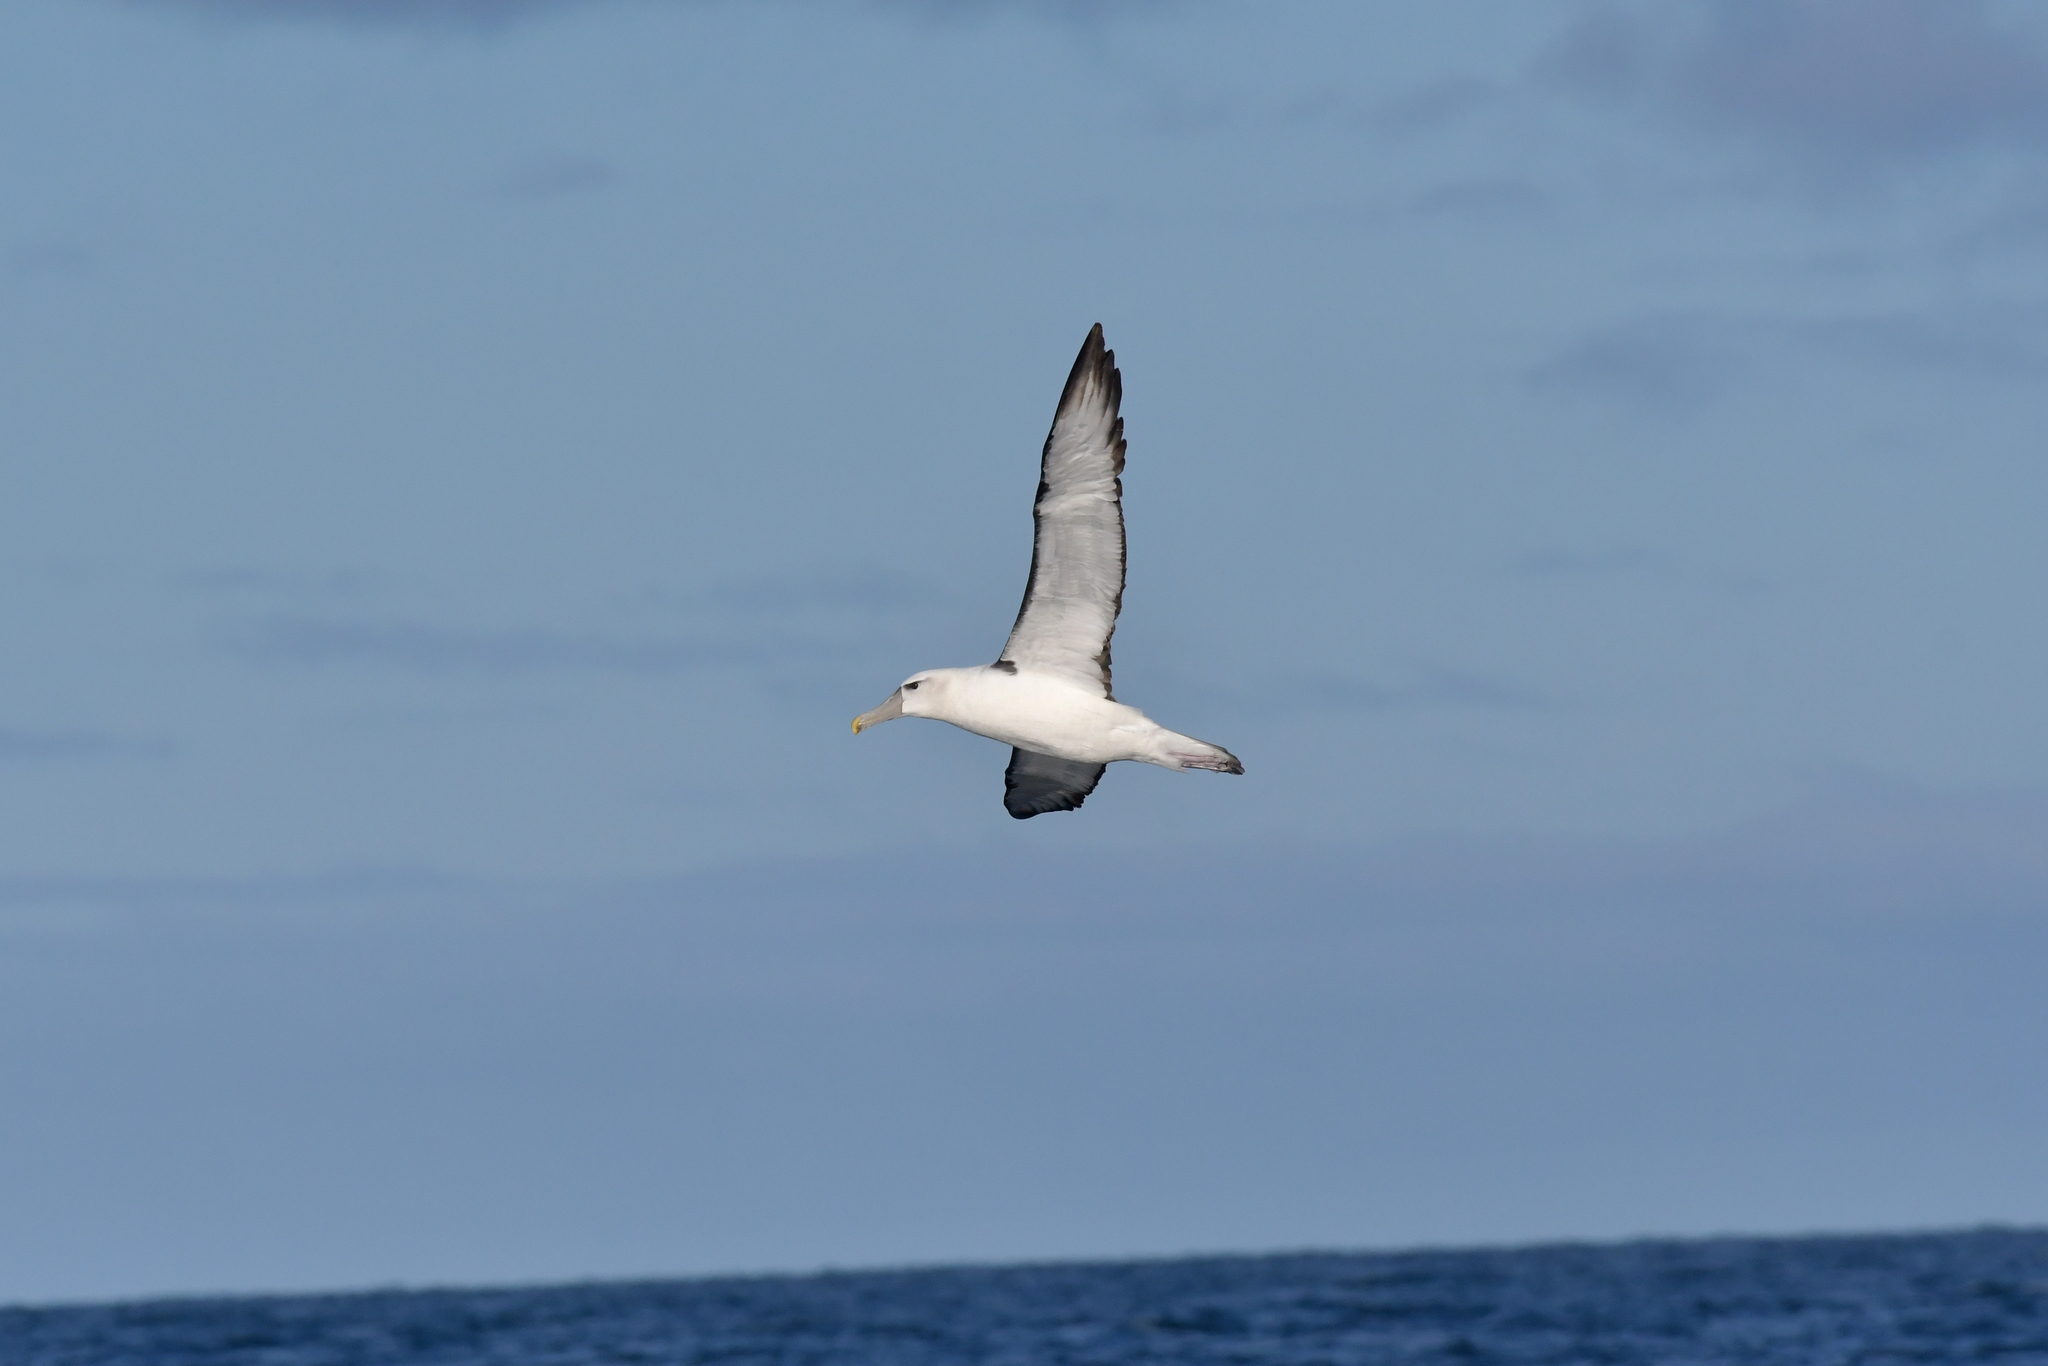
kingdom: Animalia
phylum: Chordata
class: Aves
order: Procellariiformes
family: Diomedeidae
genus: Thalassarche
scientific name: Thalassarche cauta
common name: Shy albatross
